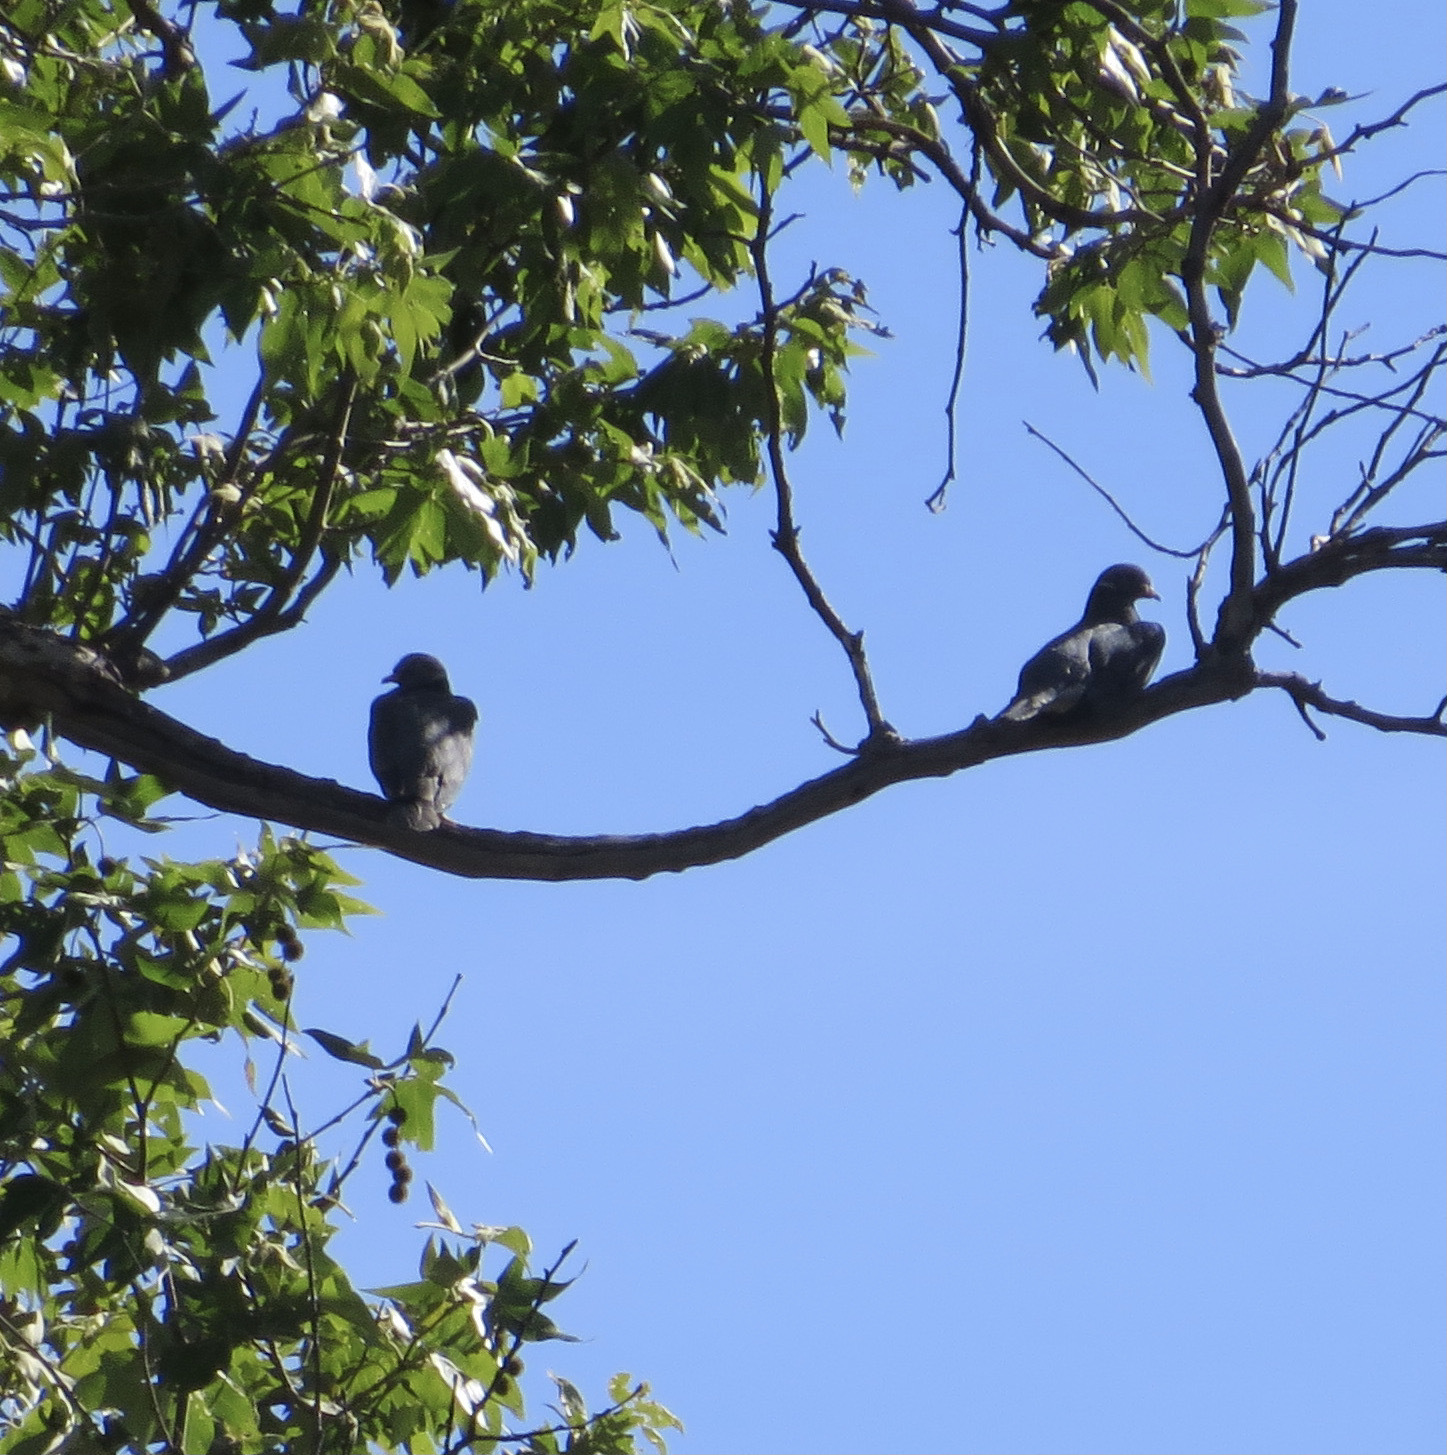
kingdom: Animalia
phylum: Chordata
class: Aves
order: Columbiformes
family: Columbidae
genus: Patagioenas
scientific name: Patagioenas fasciata
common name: Band-tailed pigeon
